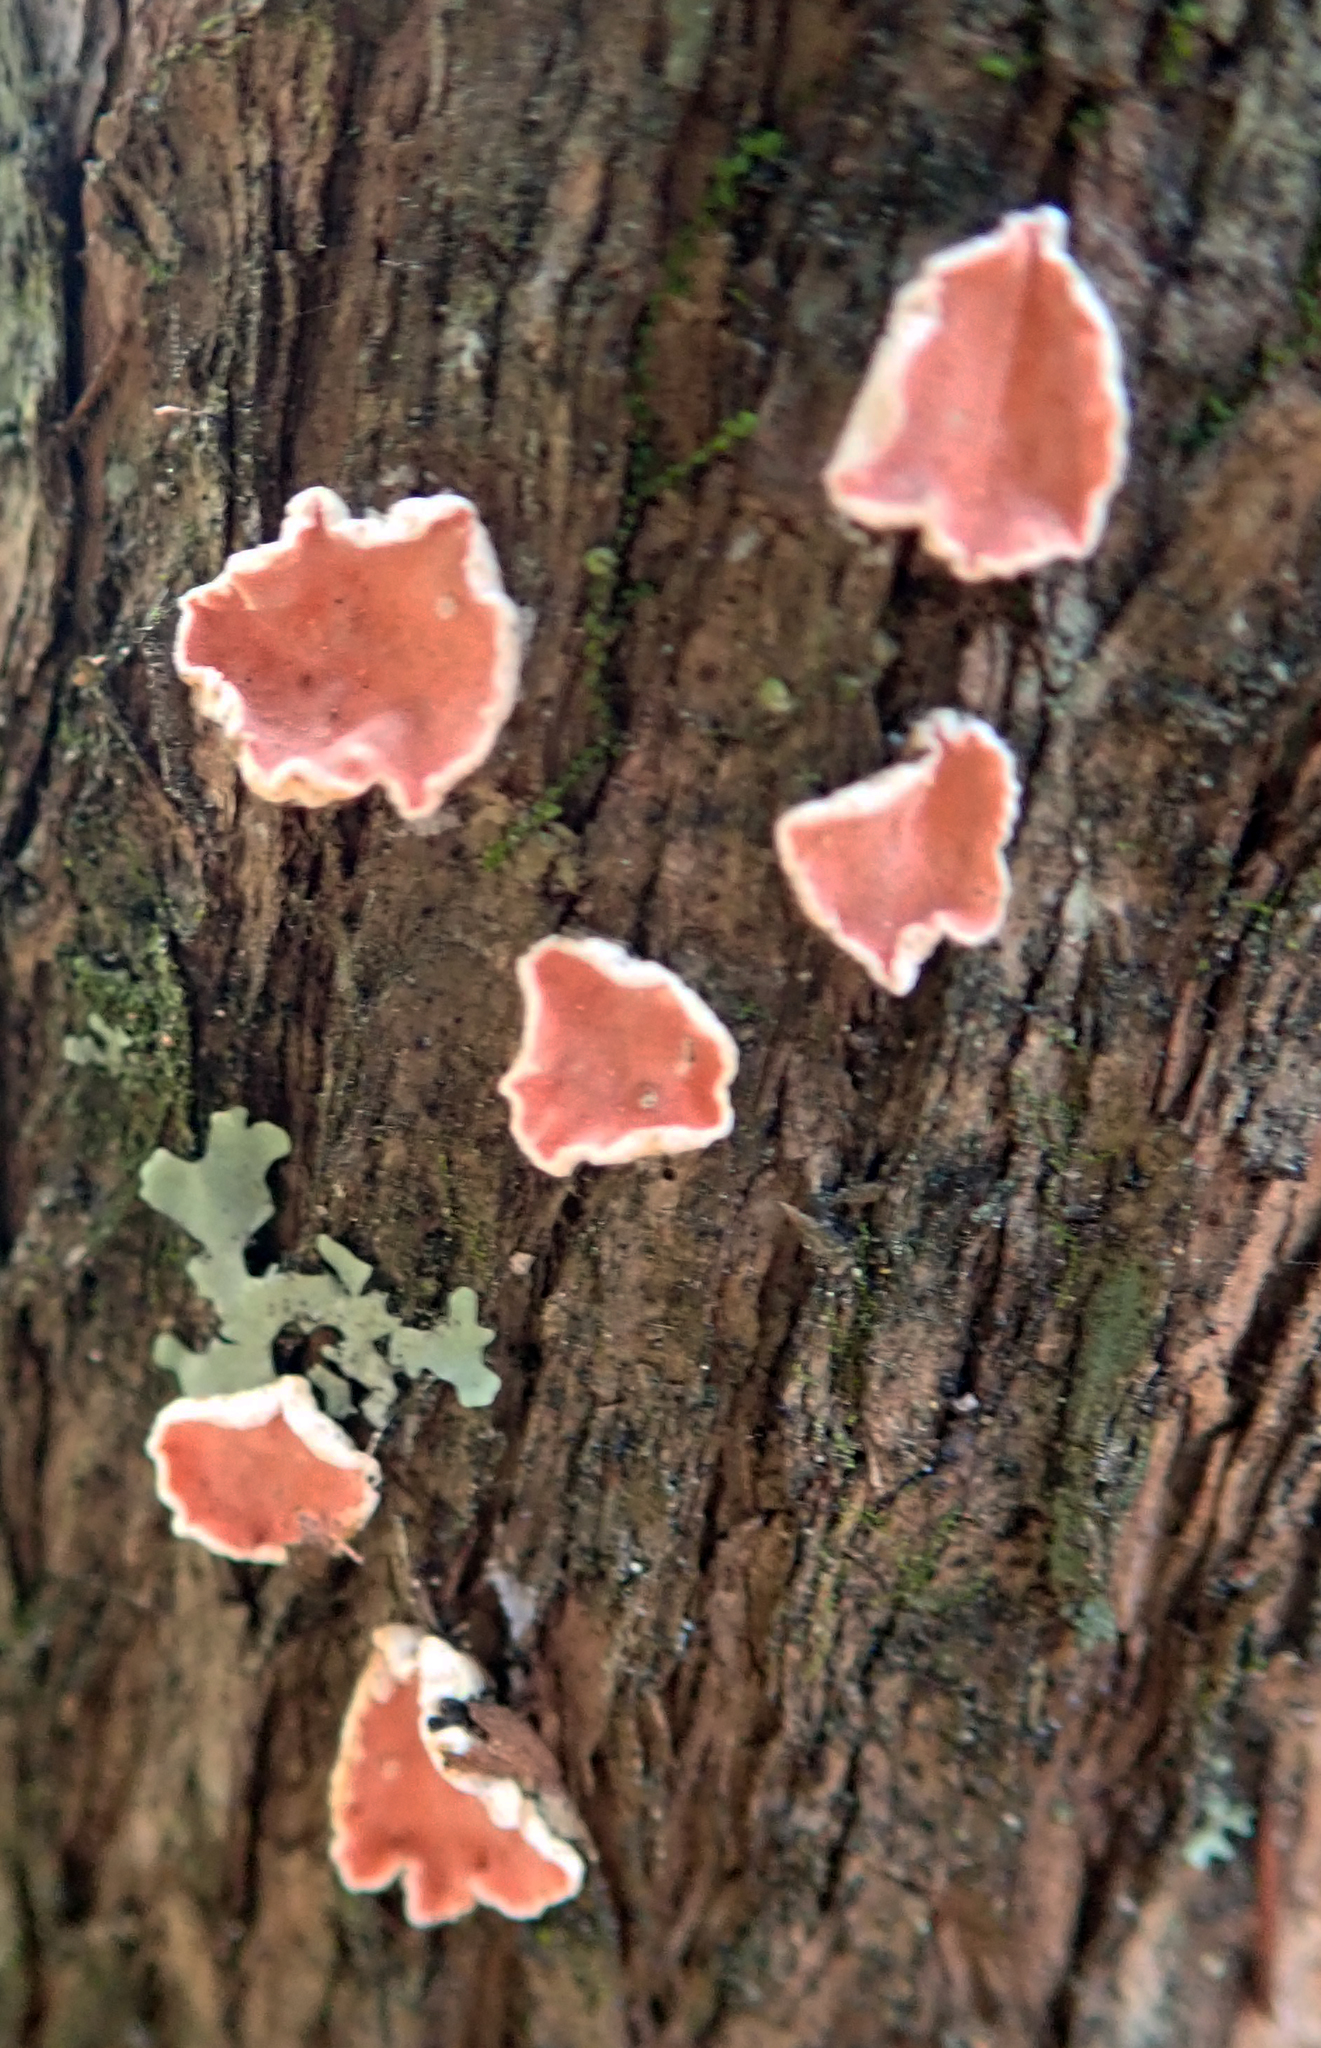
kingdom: Fungi
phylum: Basidiomycota
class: Agaricomycetes
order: Russulales
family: Stereaceae
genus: Aleurodiscus
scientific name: Aleurodiscus ochraceoflavus
